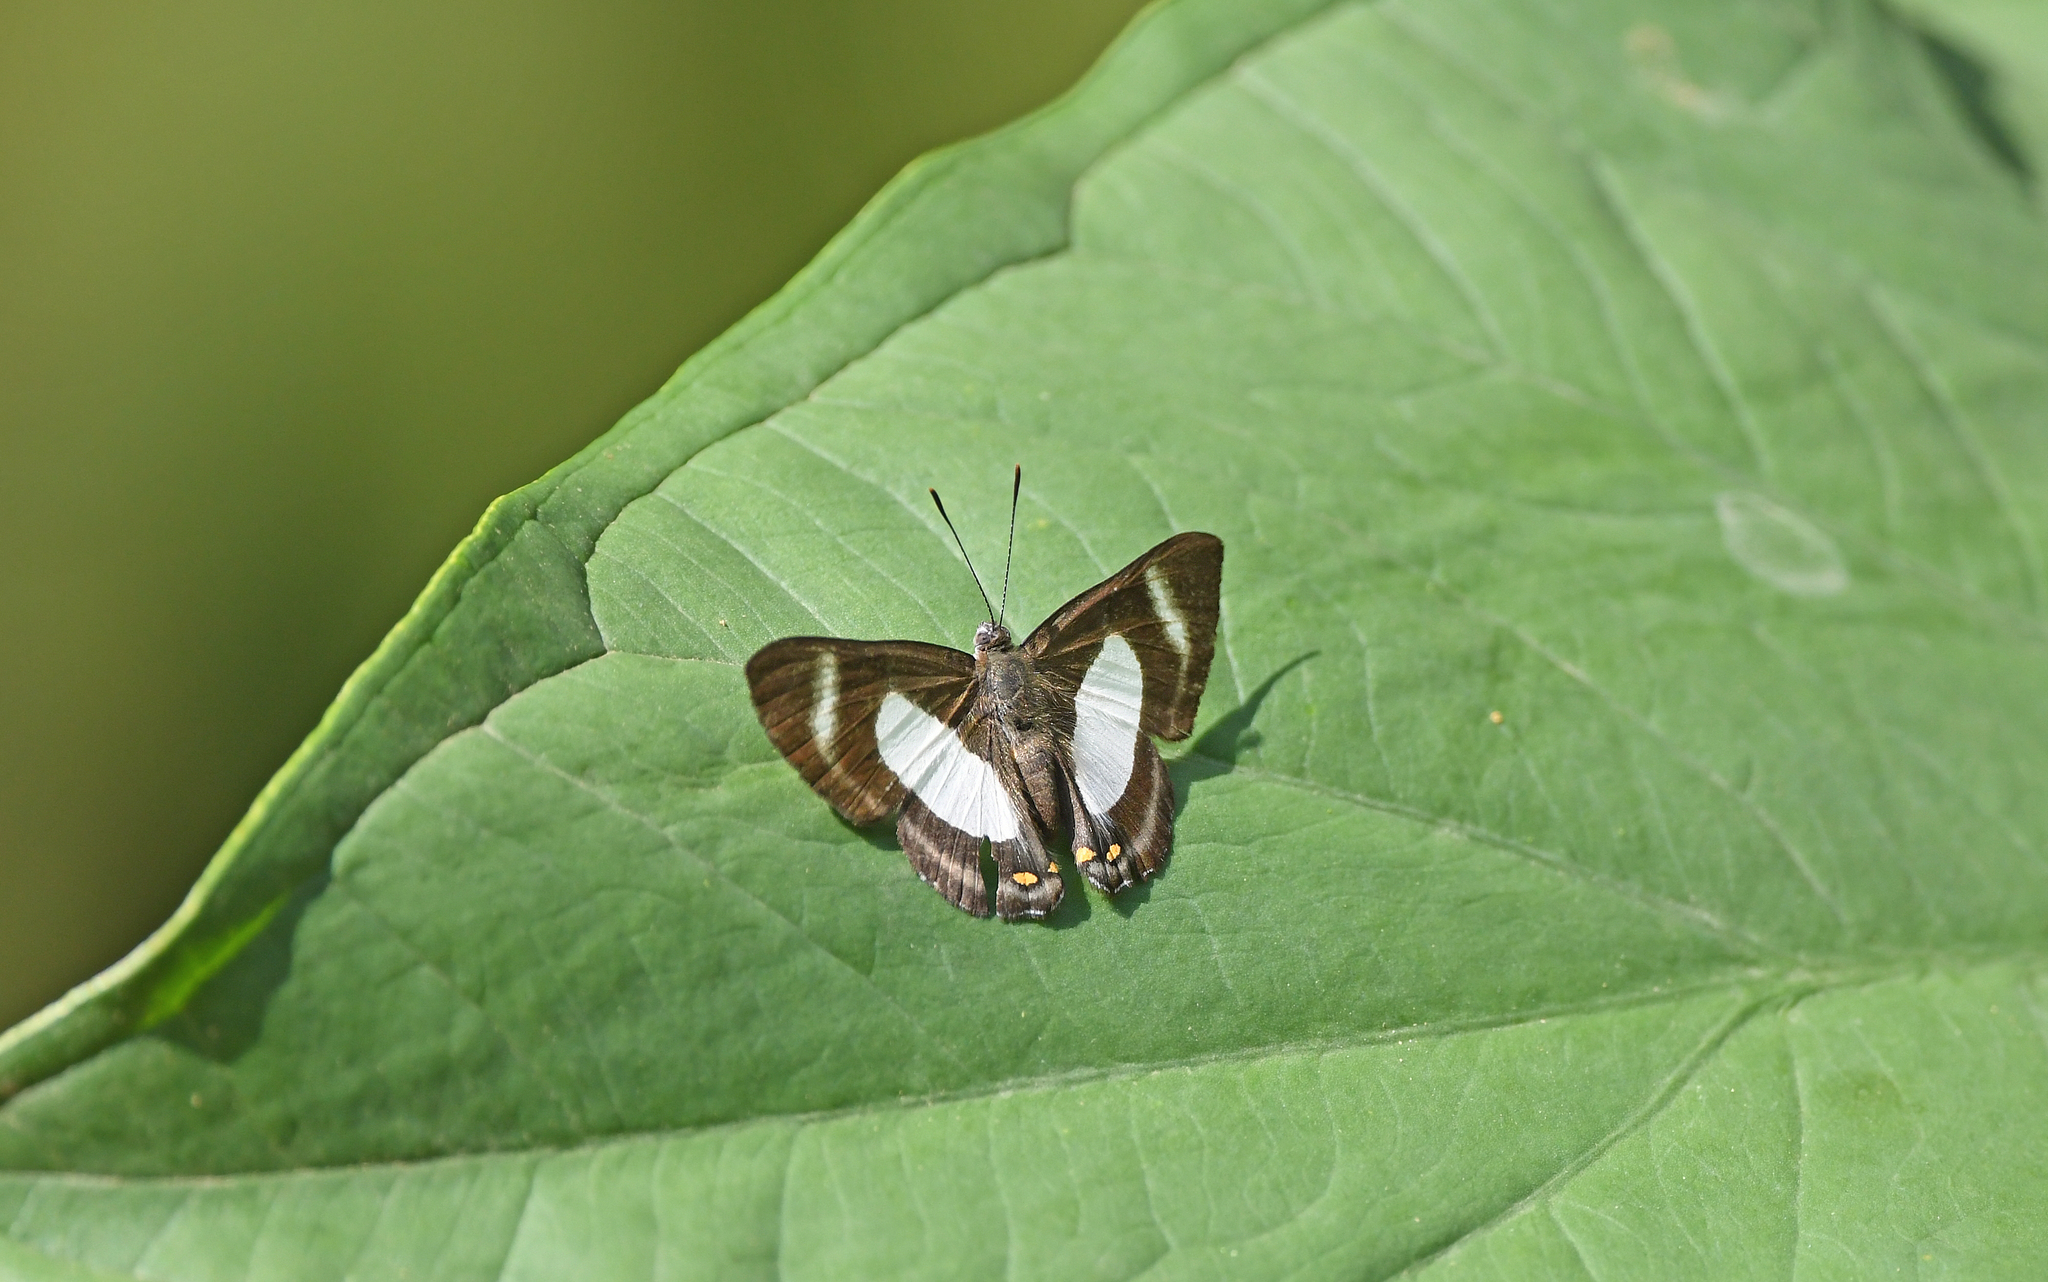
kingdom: Animalia
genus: Siseme
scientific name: Siseme alectryo
